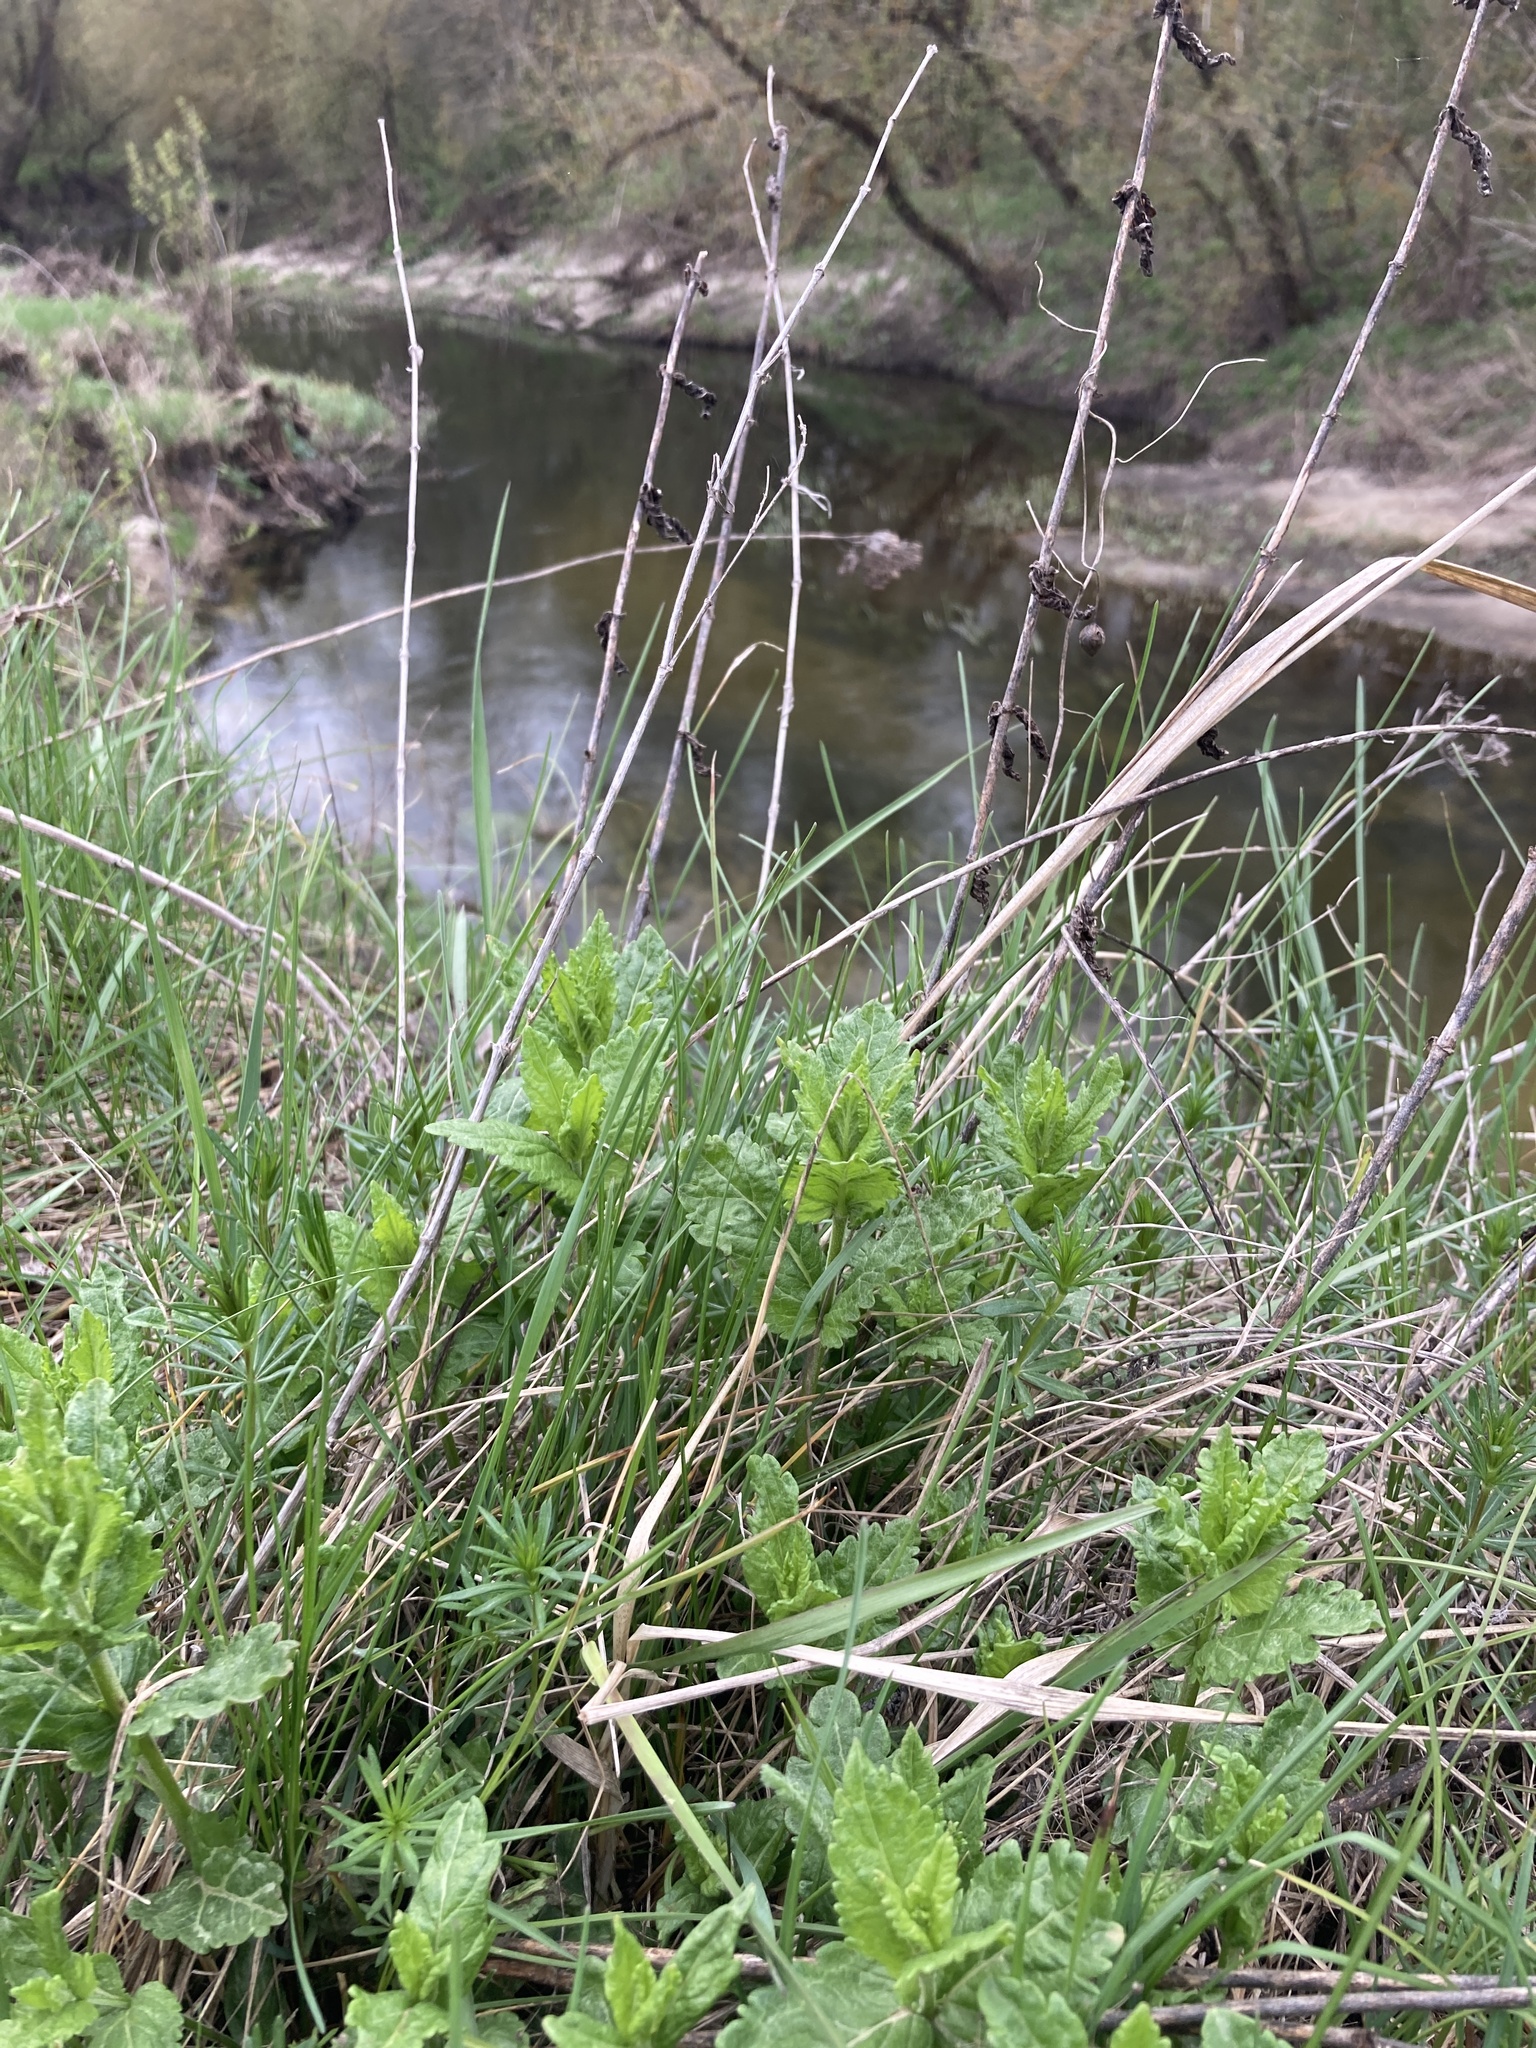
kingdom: Plantae
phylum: Tracheophyta
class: Magnoliopsida
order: Lamiales
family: Plantaginaceae
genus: Veronica
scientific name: Veronica teucrium
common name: Large speedwell
